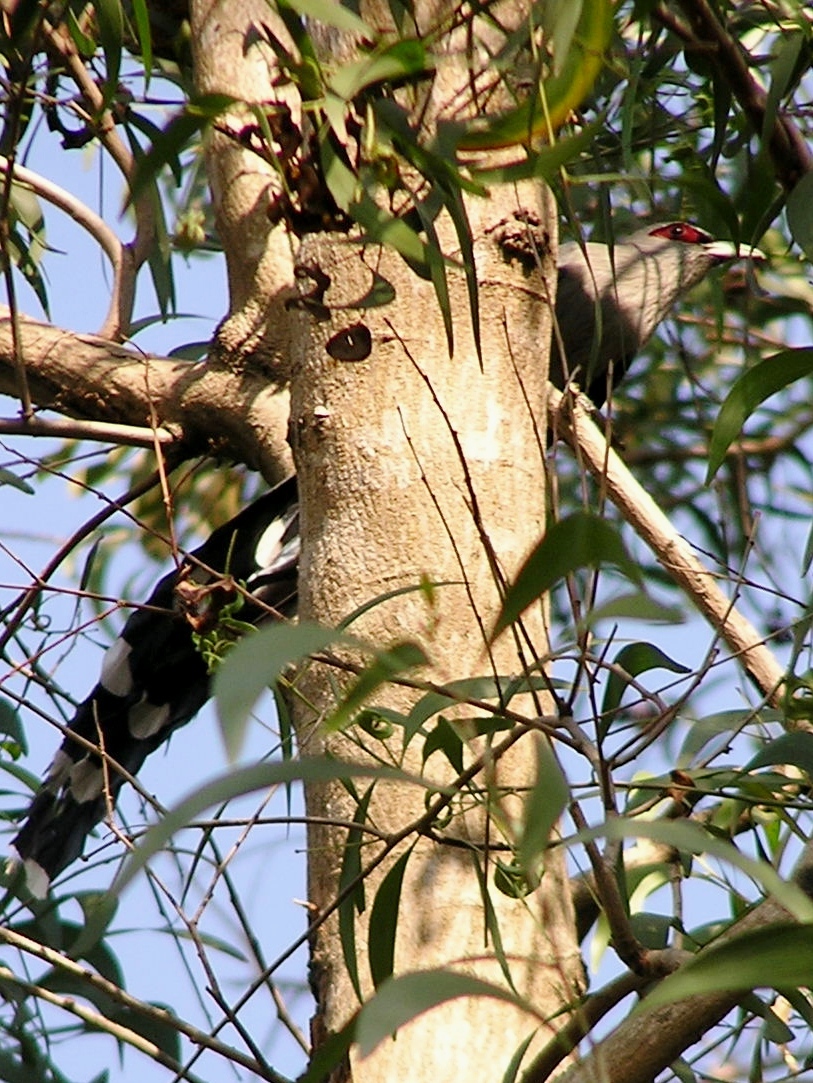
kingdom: Animalia
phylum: Chordata
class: Aves
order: Cuculiformes
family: Cuculidae
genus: Rhopodytes
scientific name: Rhopodytes tristis
